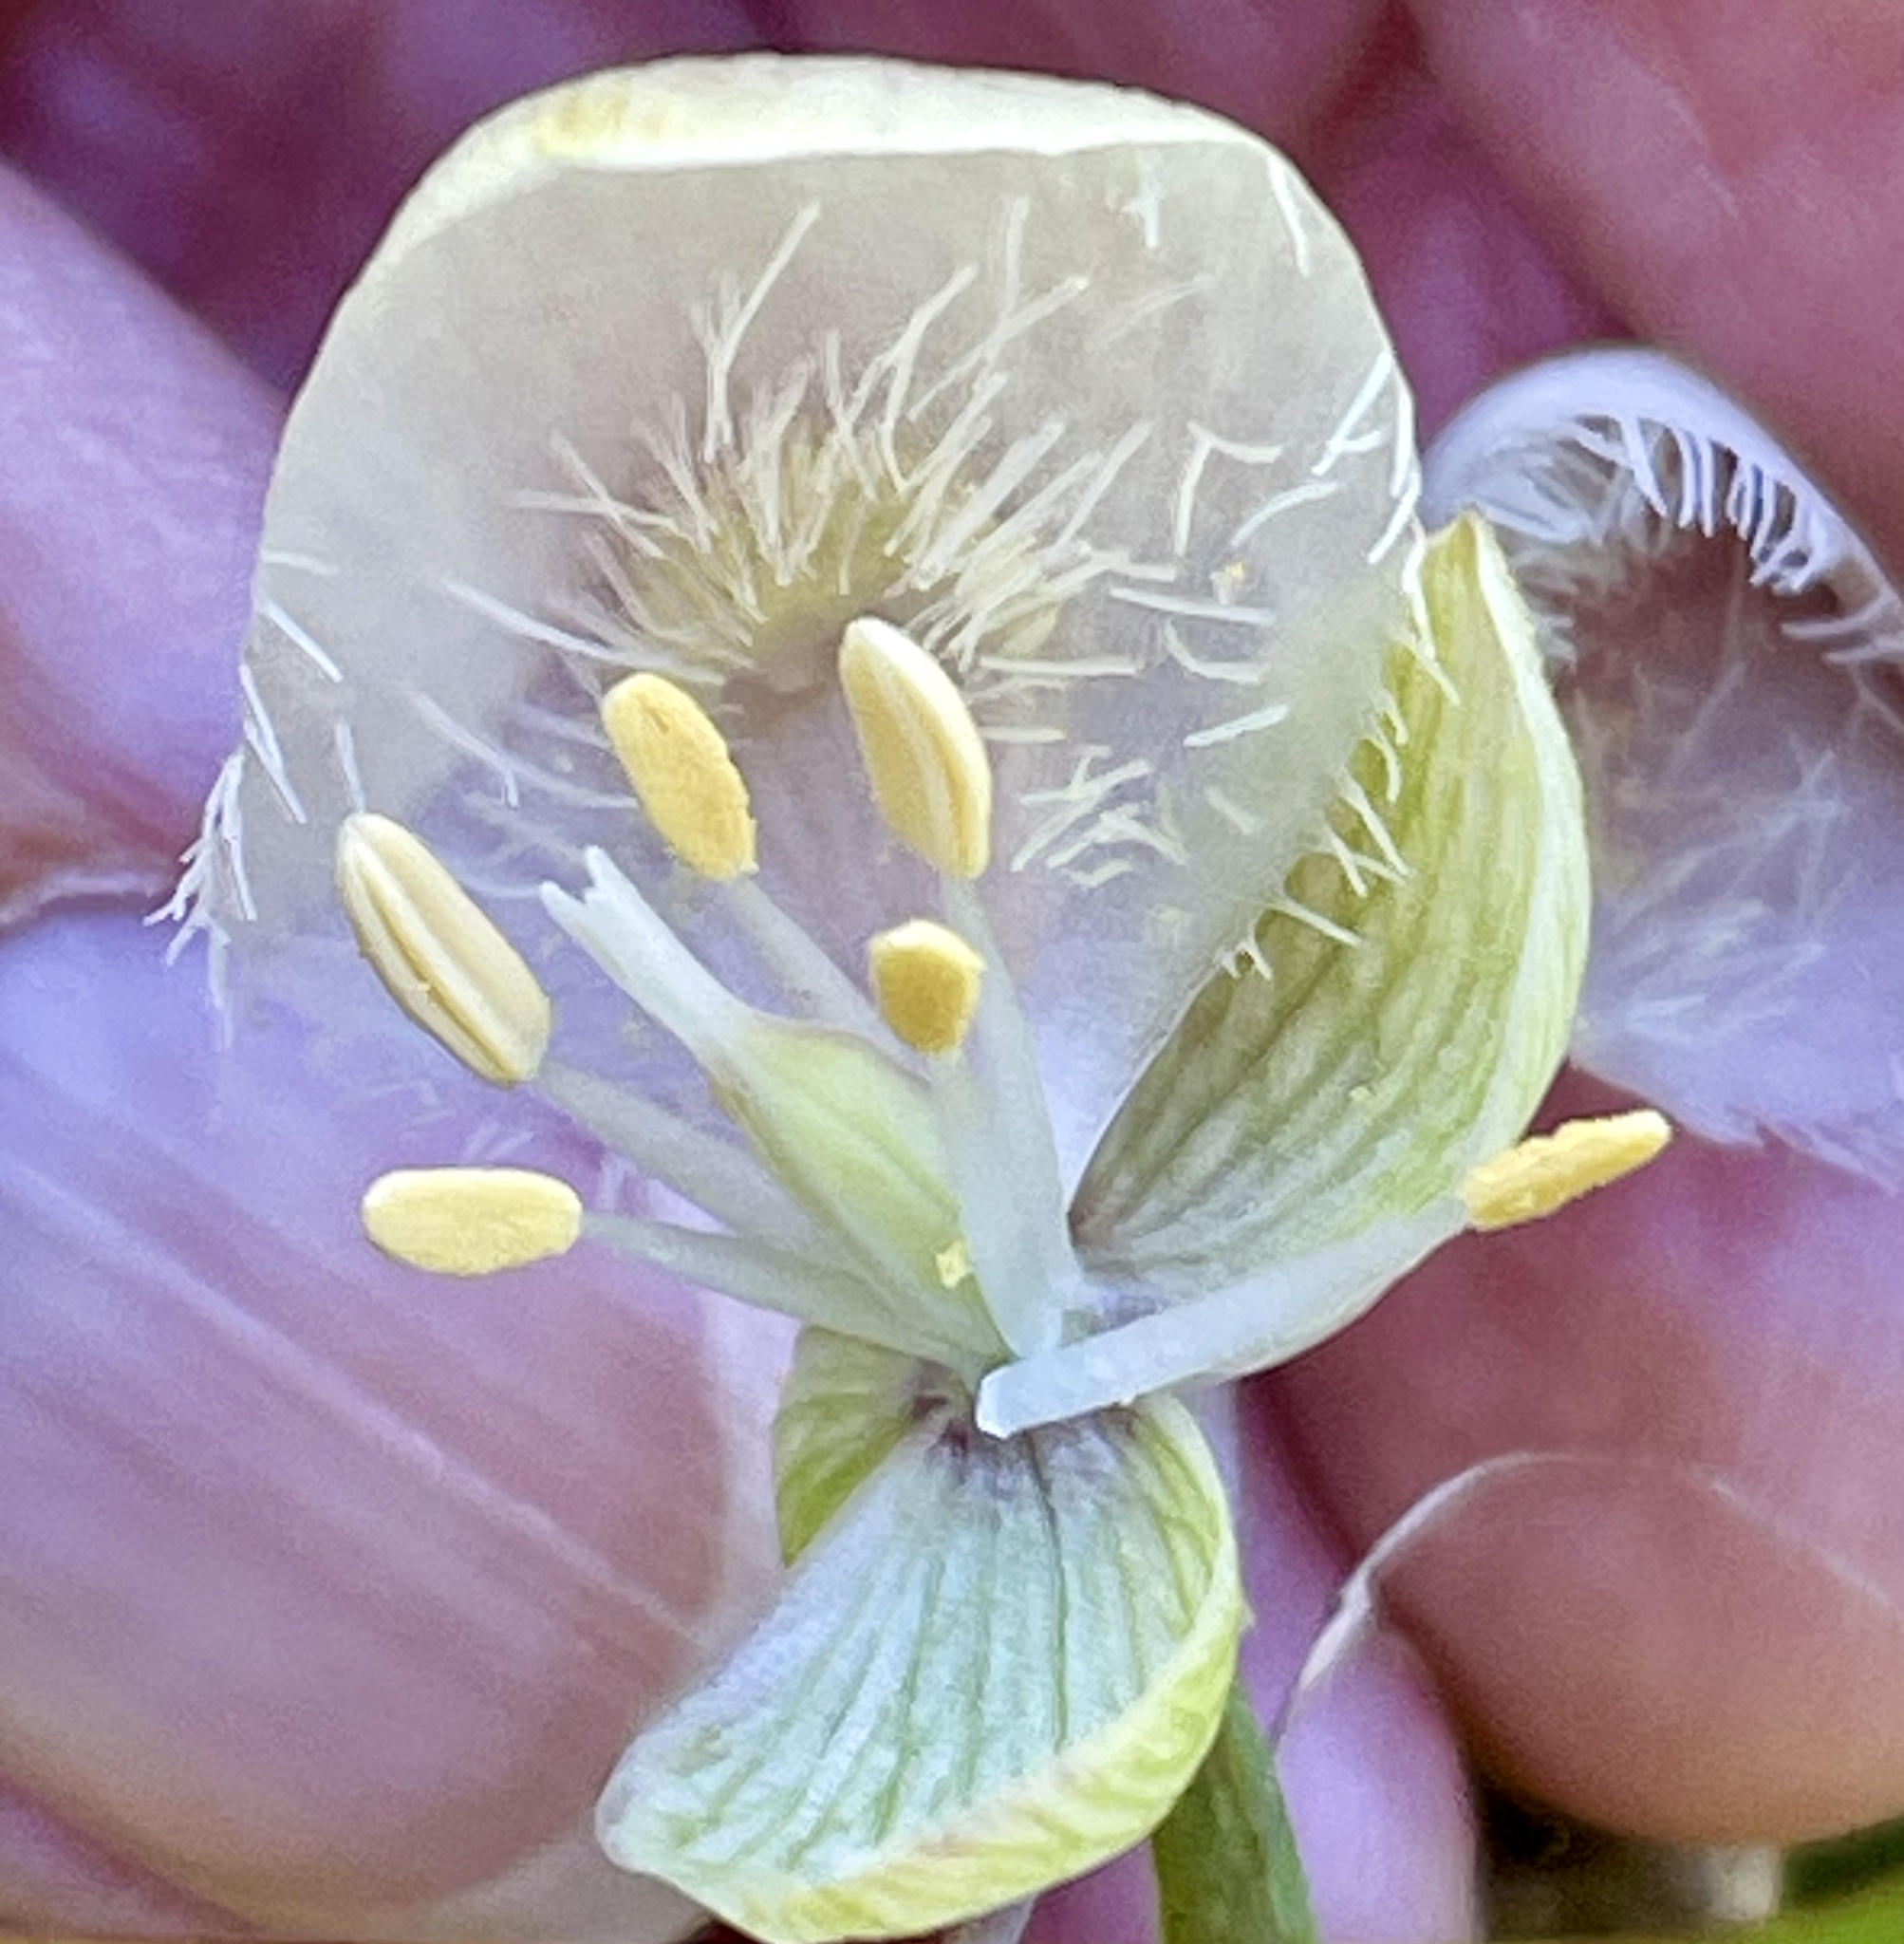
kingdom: Plantae
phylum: Tracheophyta
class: Liliopsida
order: Liliales
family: Liliaceae
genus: Calochortus
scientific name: Calochortus albus
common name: Fairy-lantern
